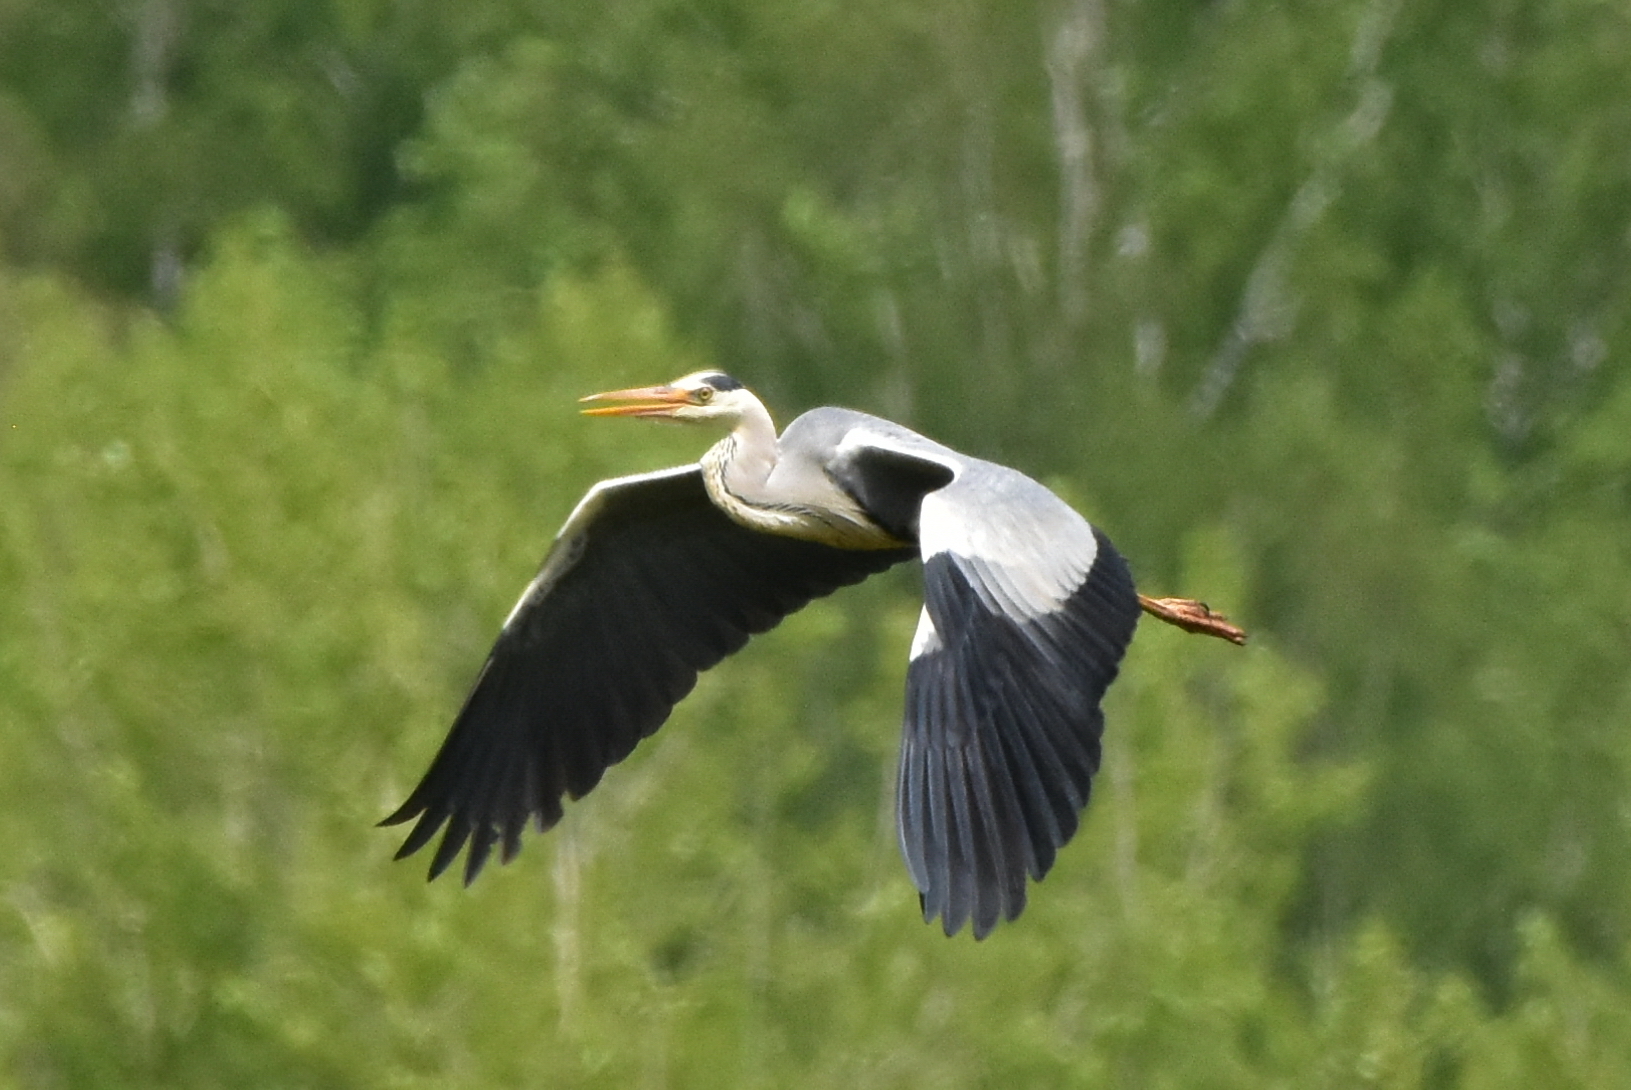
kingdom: Animalia
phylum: Chordata
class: Aves
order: Pelecaniformes
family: Ardeidae
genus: Ardea
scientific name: Ardea cinerea
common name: Grey heron
